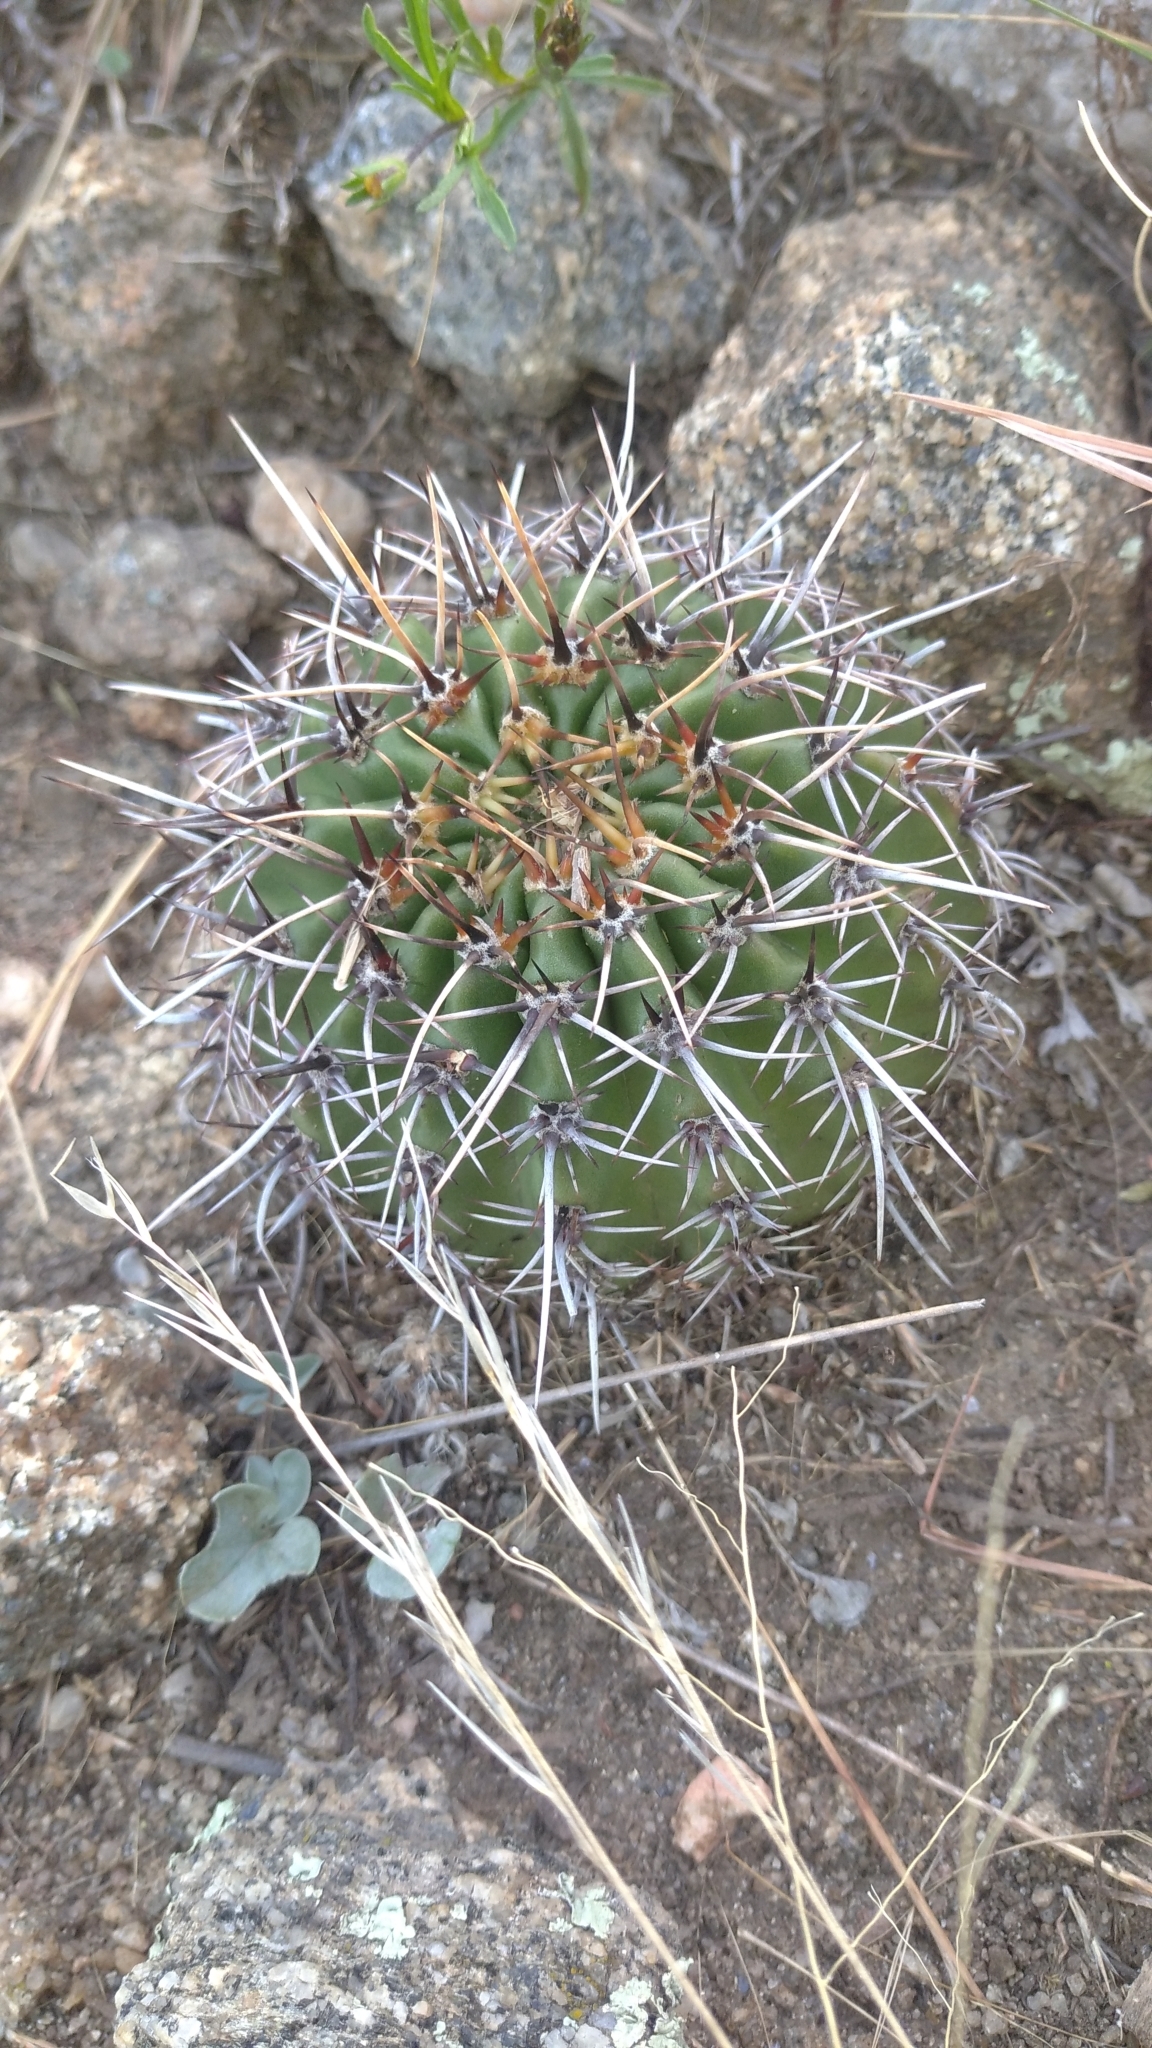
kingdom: Plantae
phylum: Tracheophyta
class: Magnoliopsida
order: Caryophyllales
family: Cactaceae
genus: Echinopsis
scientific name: Echinopsis aurea
